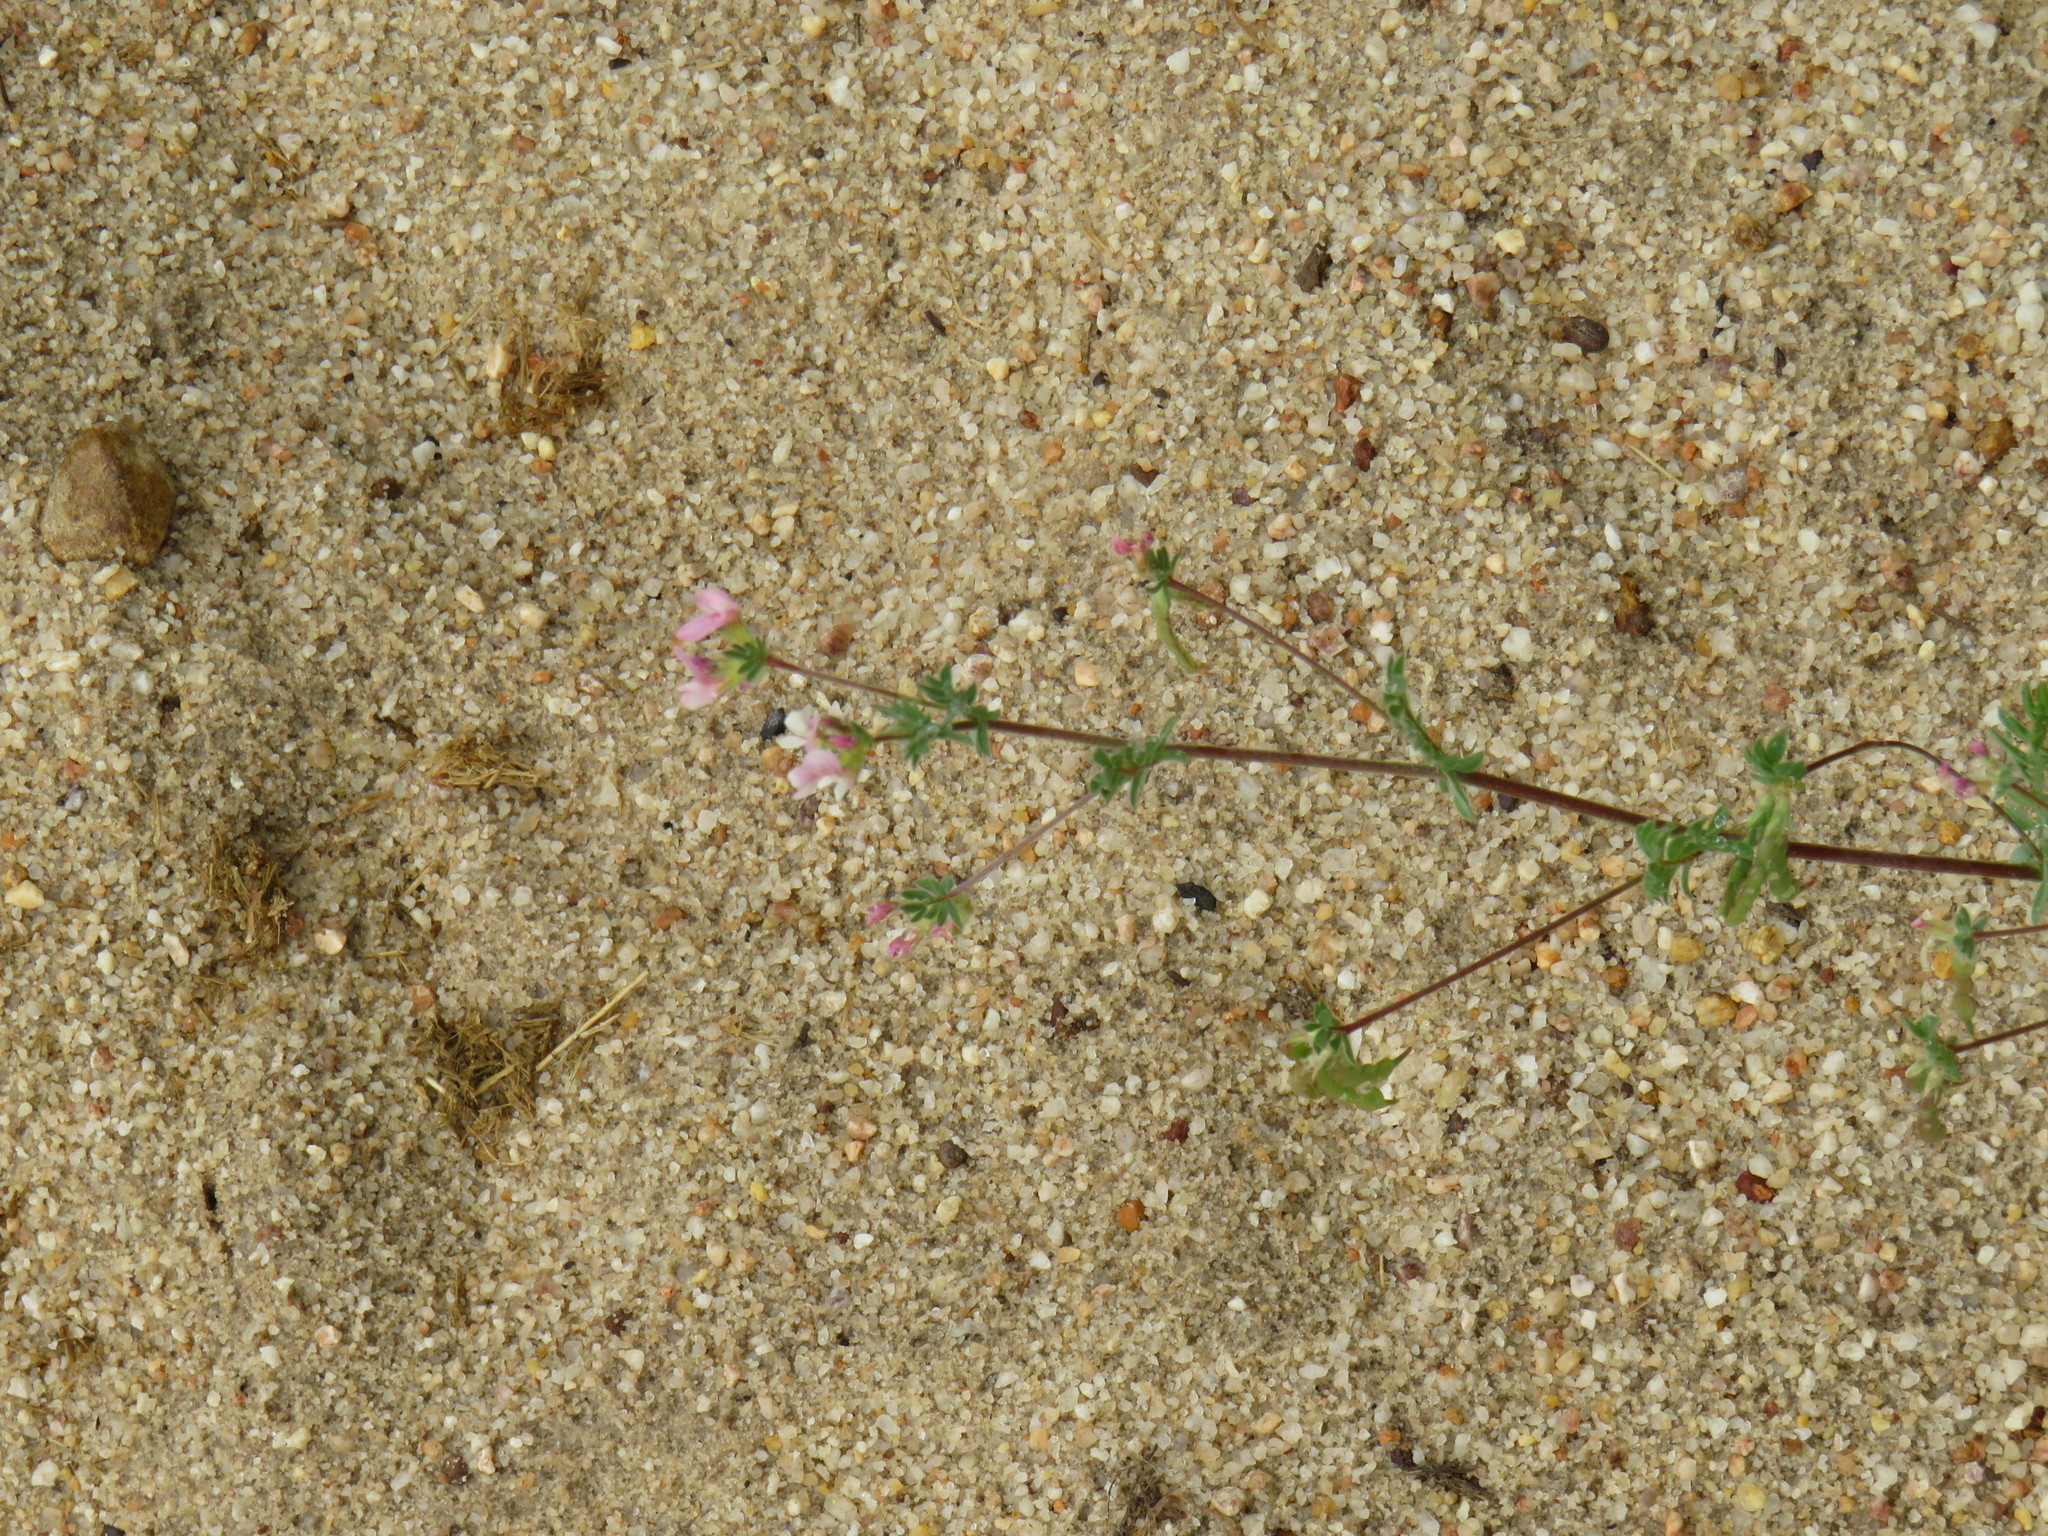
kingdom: Plantae
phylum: Tracheophyta
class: Magnoliopsida
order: Fabales
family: Fabaceae
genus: Ornithopus
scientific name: Ornithopus sativus
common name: Serradella
